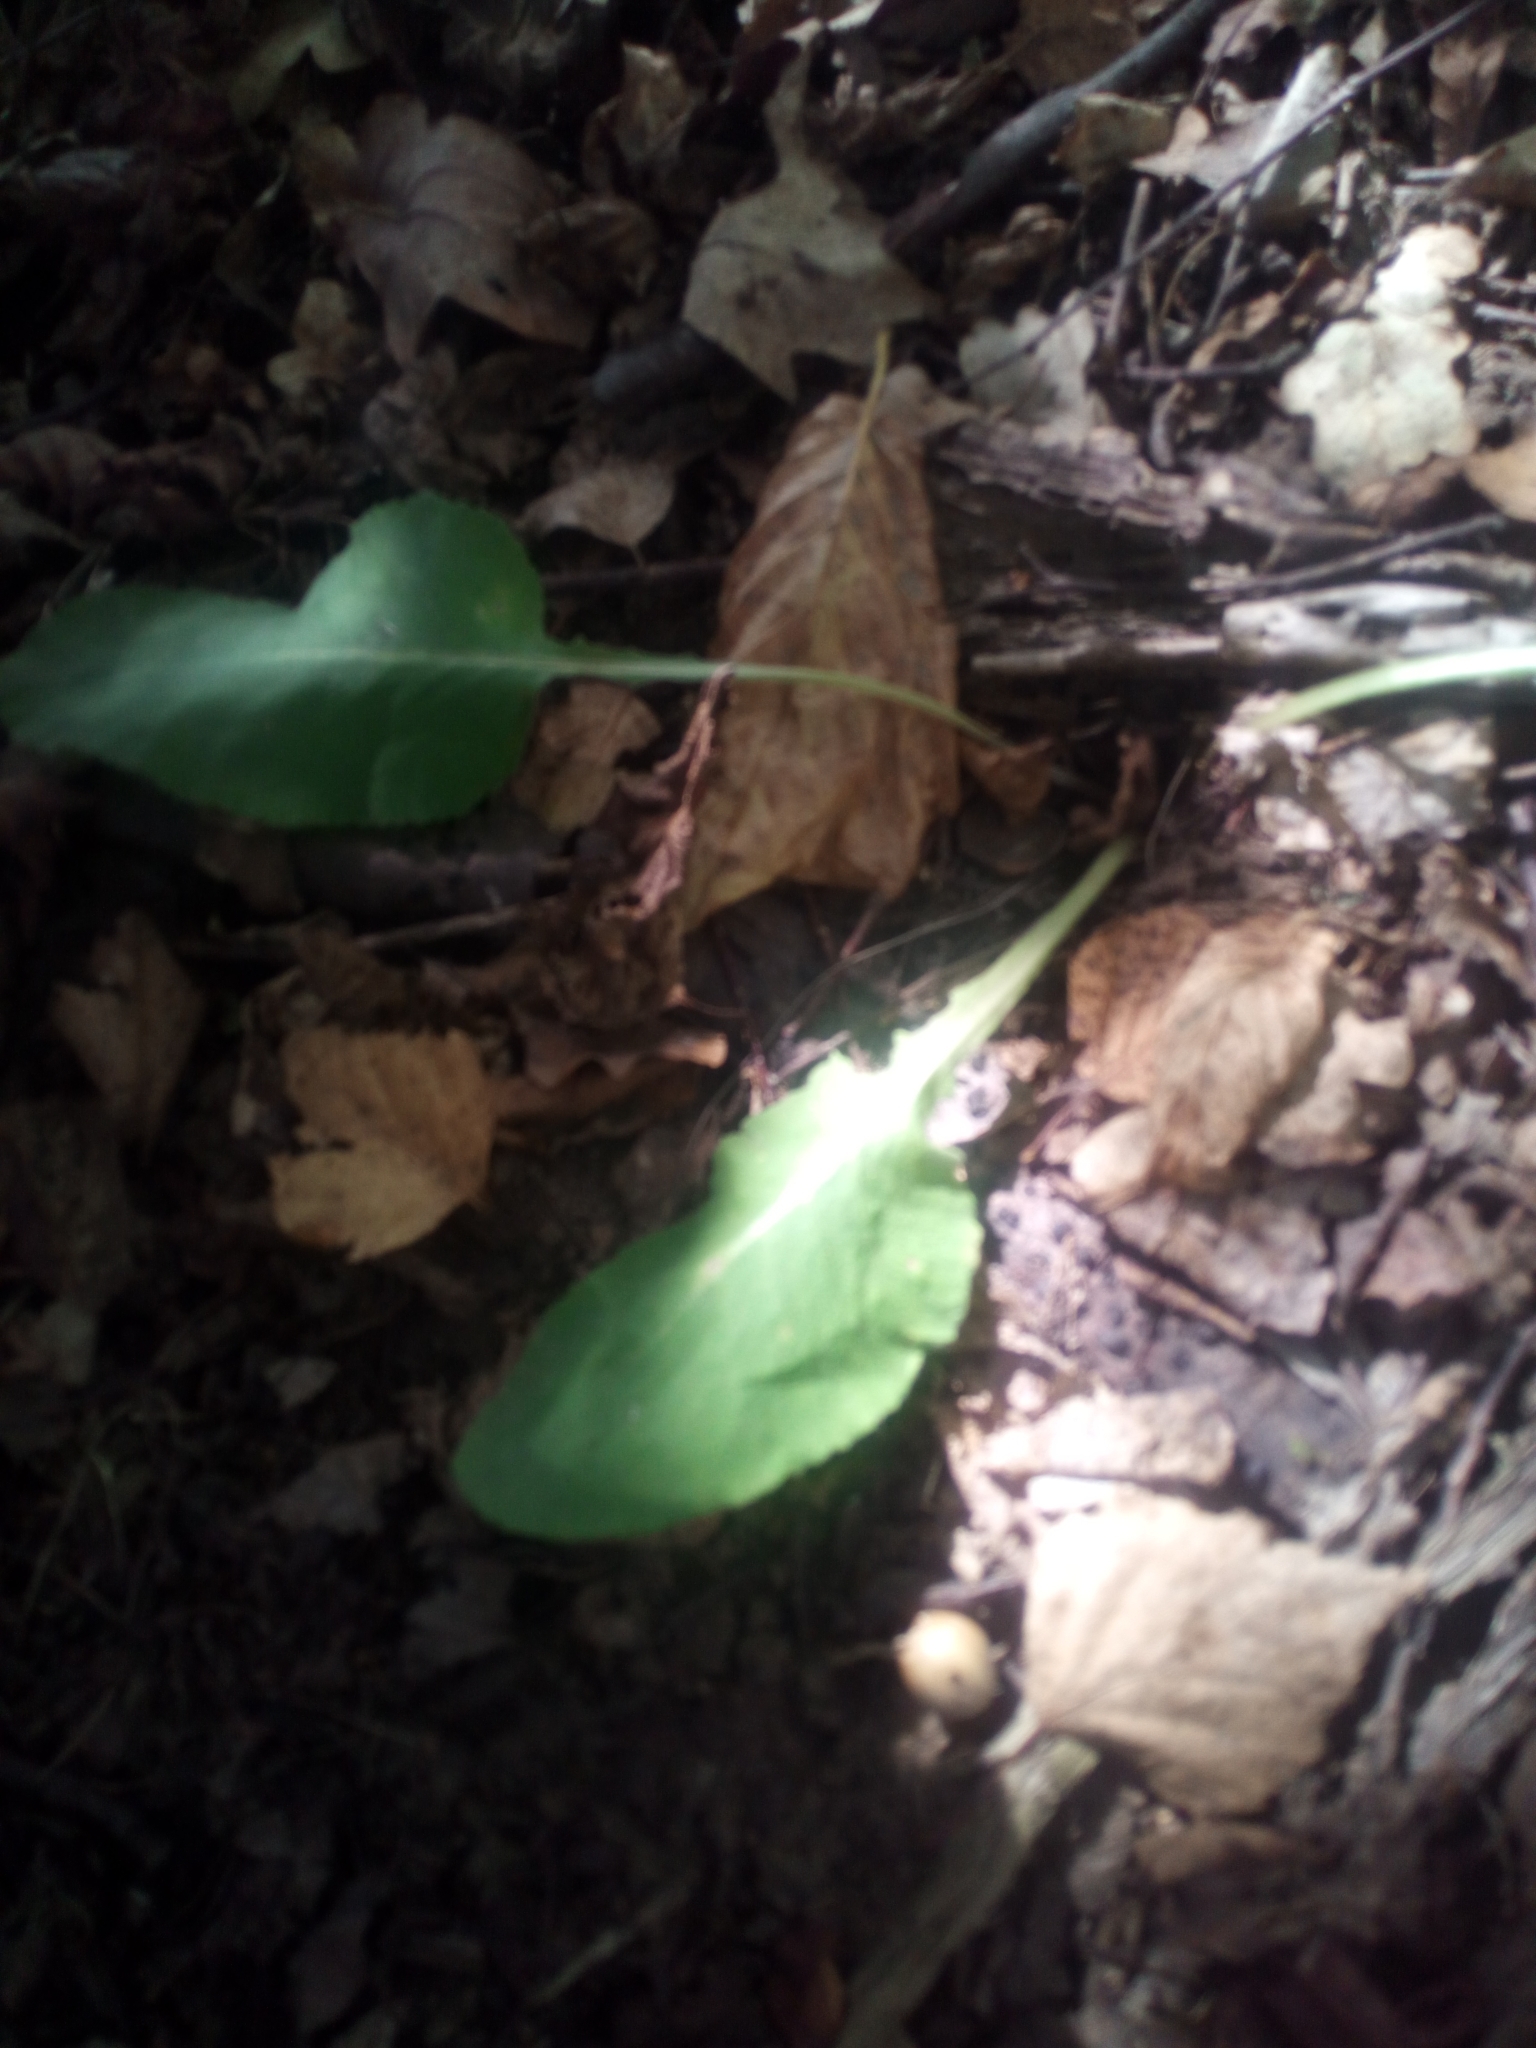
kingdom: Plantae
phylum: Tracheophyta
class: Magnoliopsida
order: Boraginales
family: Boraginaceae
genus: Pulmonaria
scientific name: Pulmonaria obscura
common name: Suffolk lungwort
